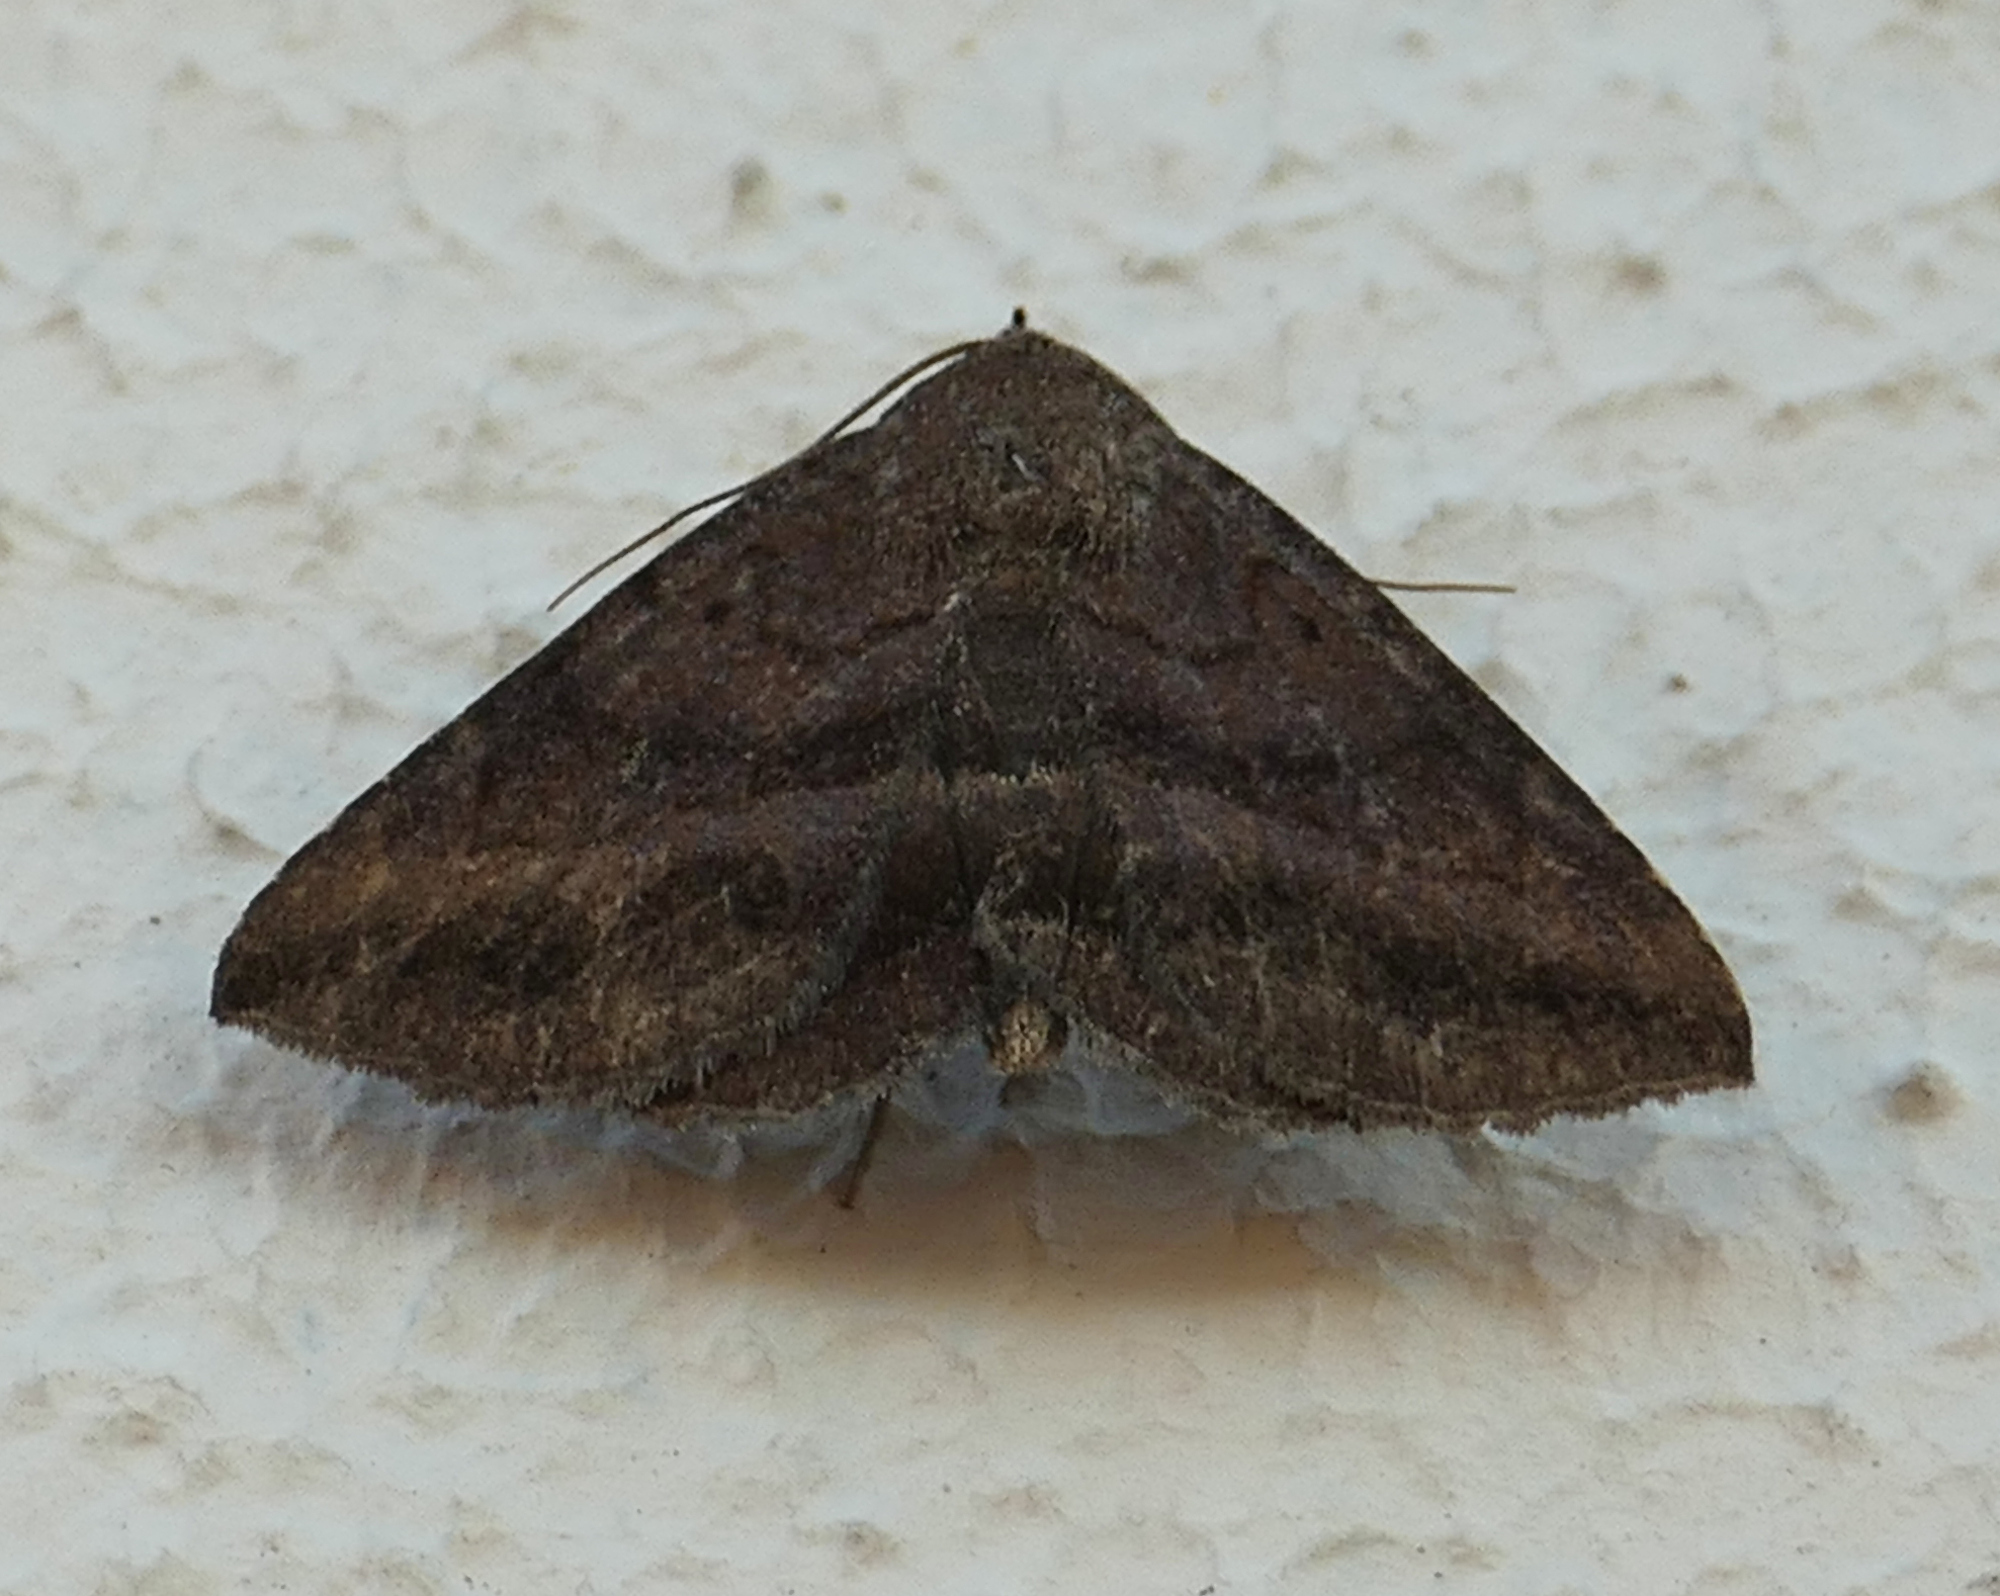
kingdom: Animalia
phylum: Arthropoda
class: Insecta
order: Lepidoptera
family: Erebidae
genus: Lesmone
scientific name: Lesmone detrahens
